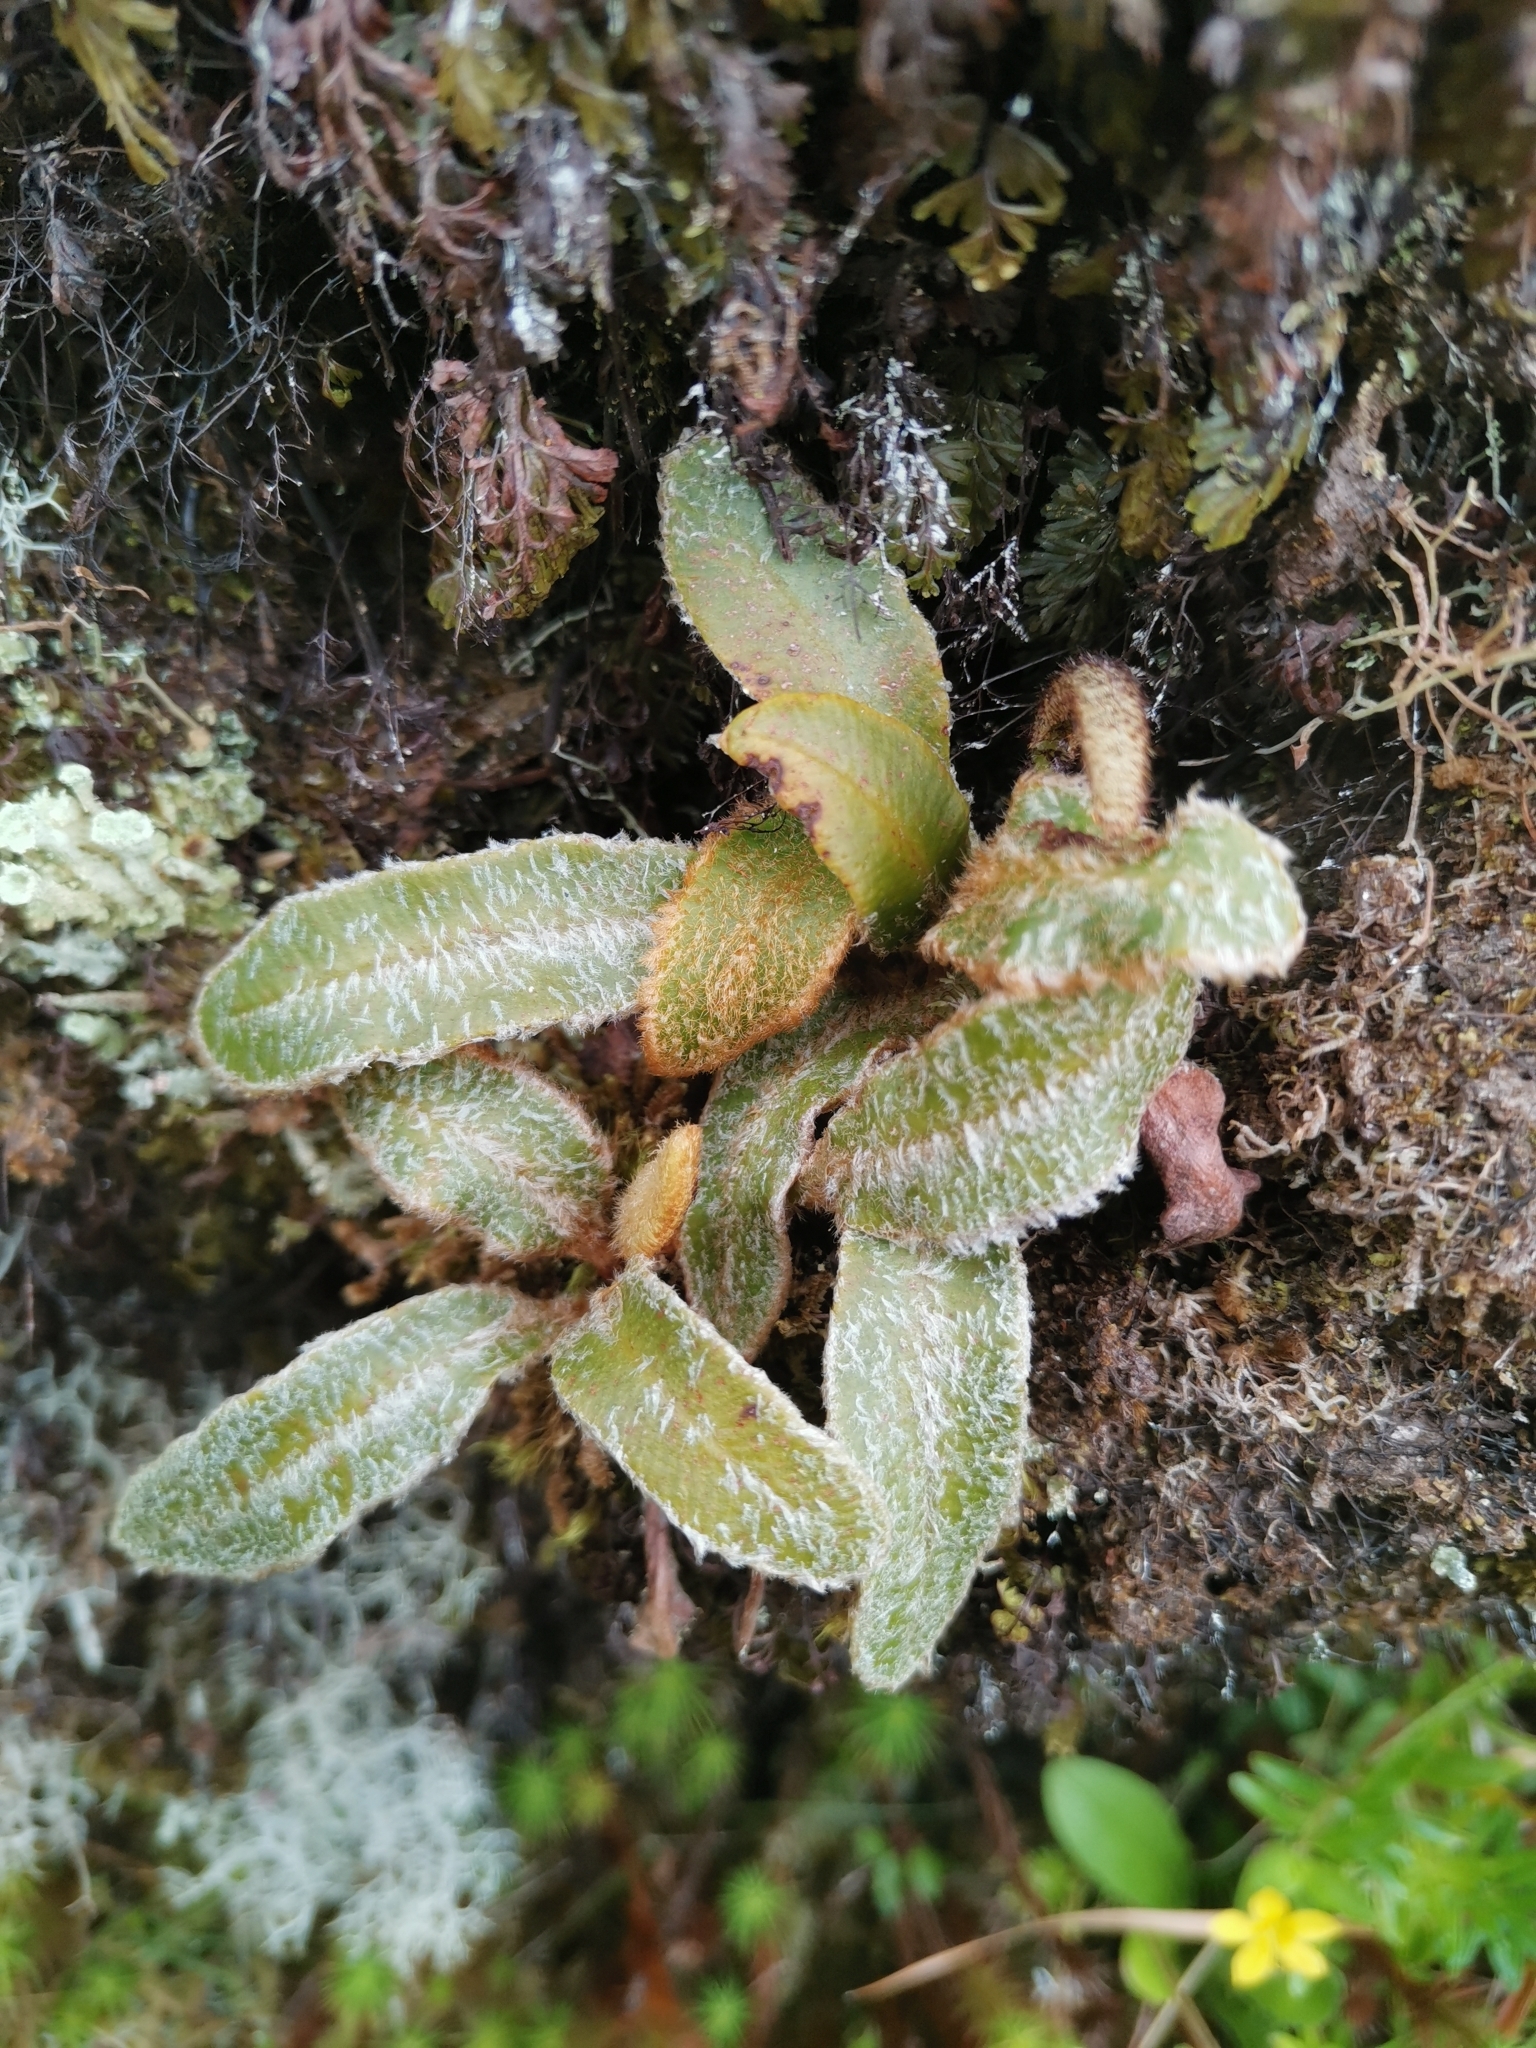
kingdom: Plantae
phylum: Tracheophyta
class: Polypodiopsida
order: Polypodiales
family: Dryopteridaceae
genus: Elaphoglossum
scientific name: Elaphoglossum semicylindricum
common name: Scaly tongue-fern
